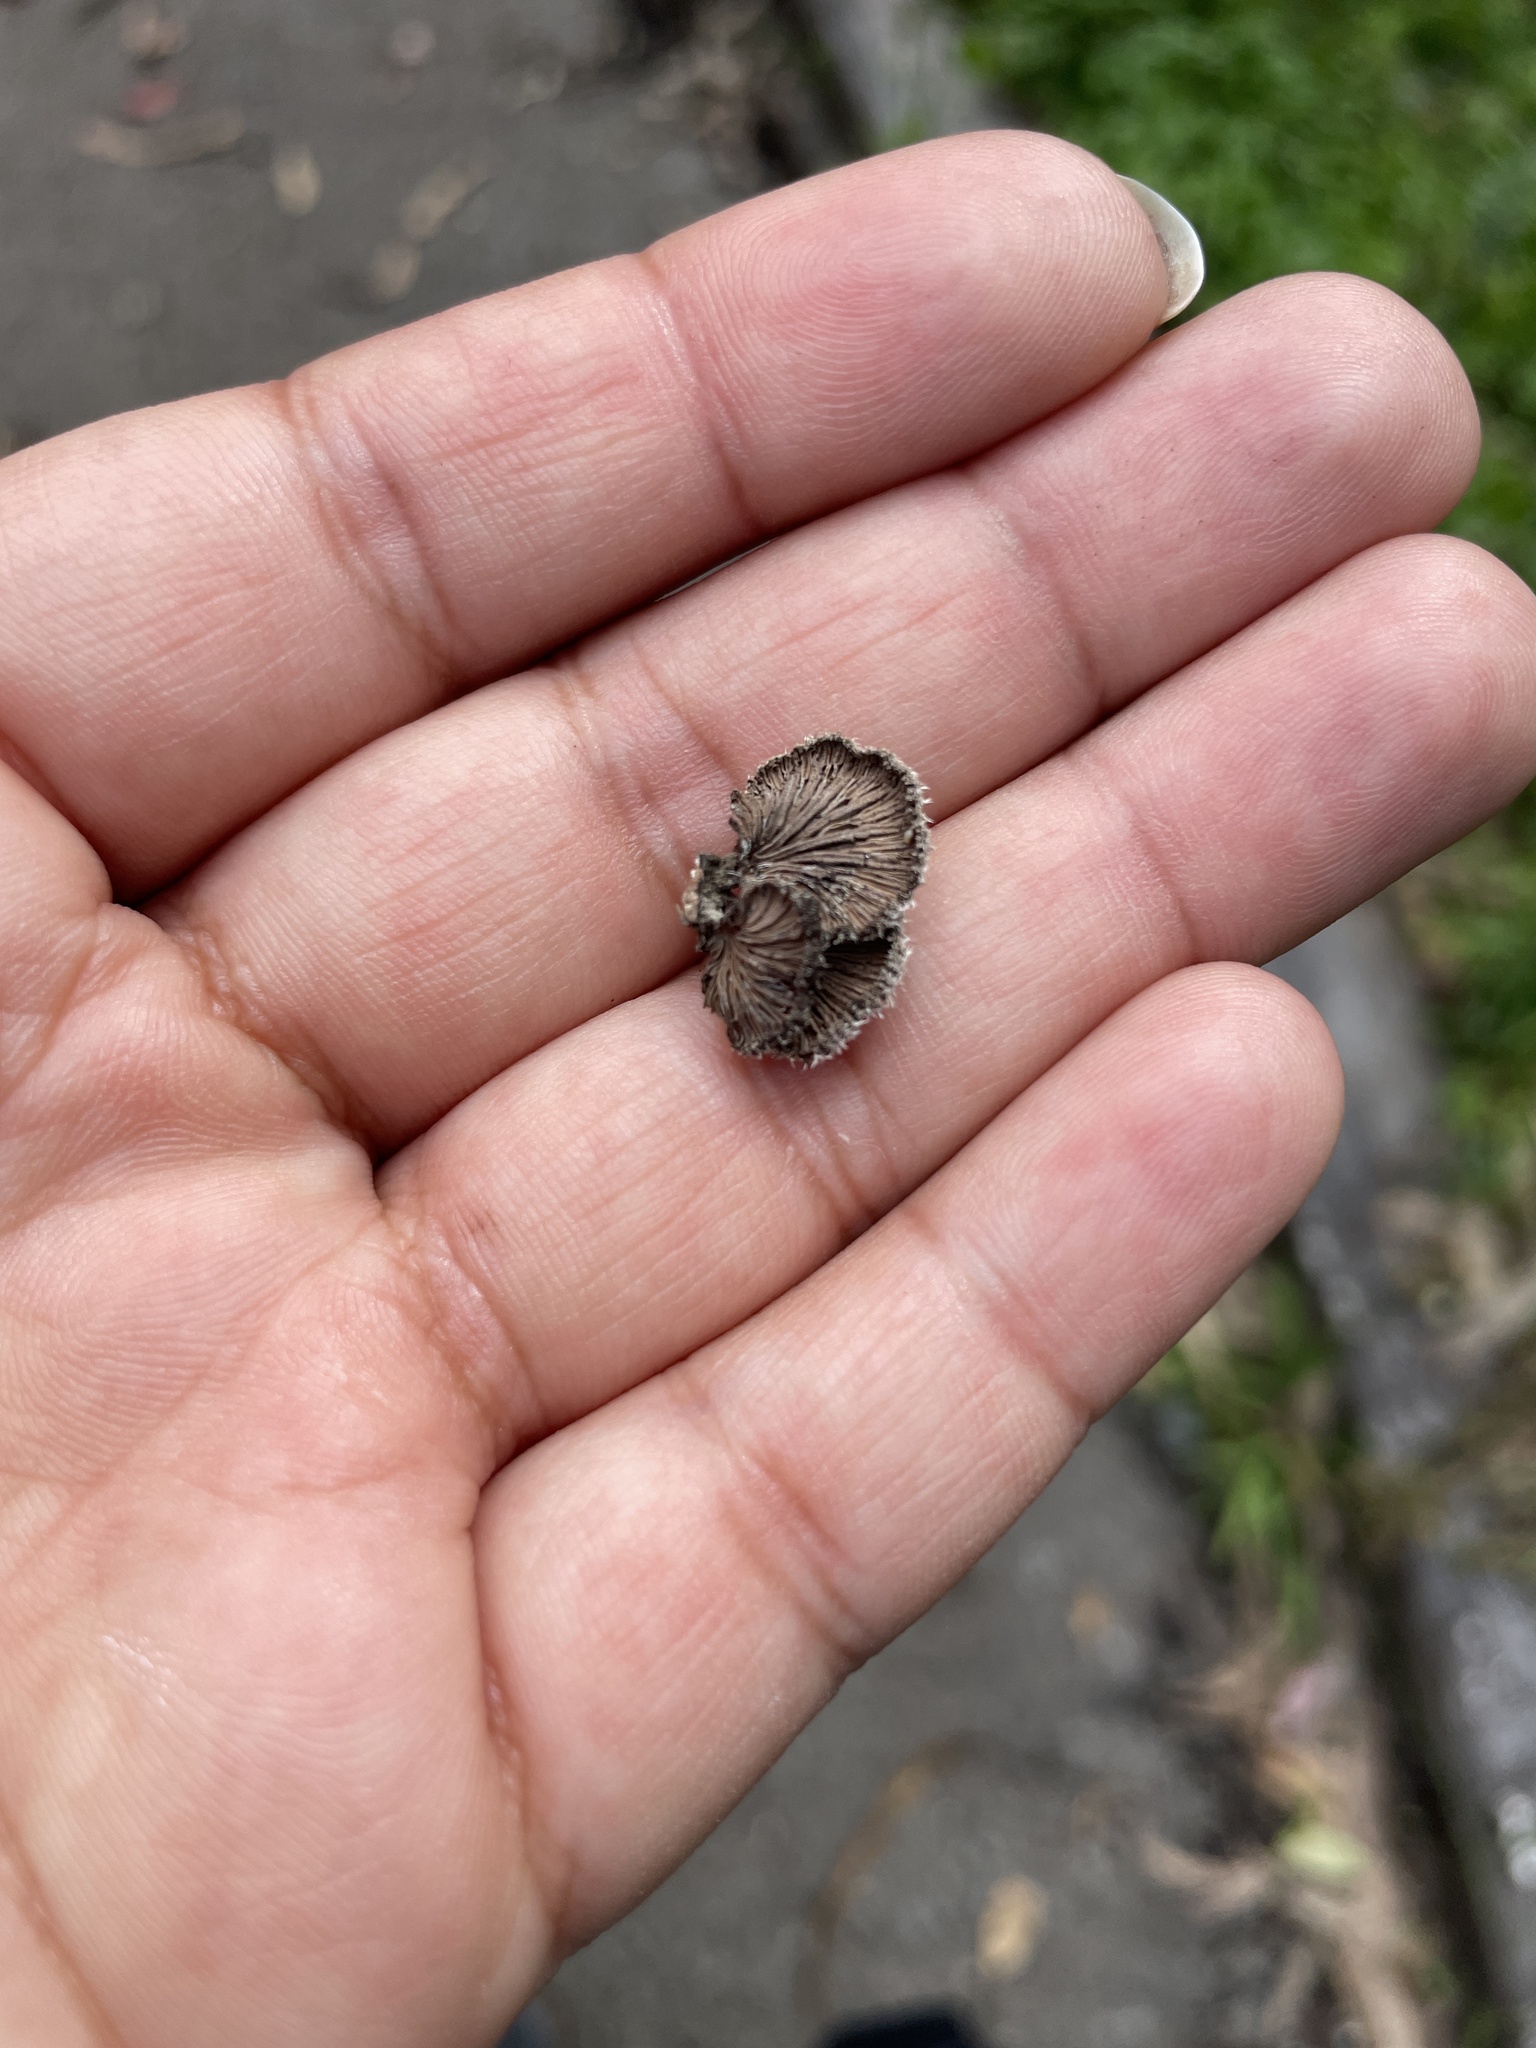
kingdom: Fungi
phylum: Basidiomycota
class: Agaricomycetes
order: Agaricales
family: Schizophyllaceae
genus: Schizophyllum
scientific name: Schizophyllum commune
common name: Common porecrust
